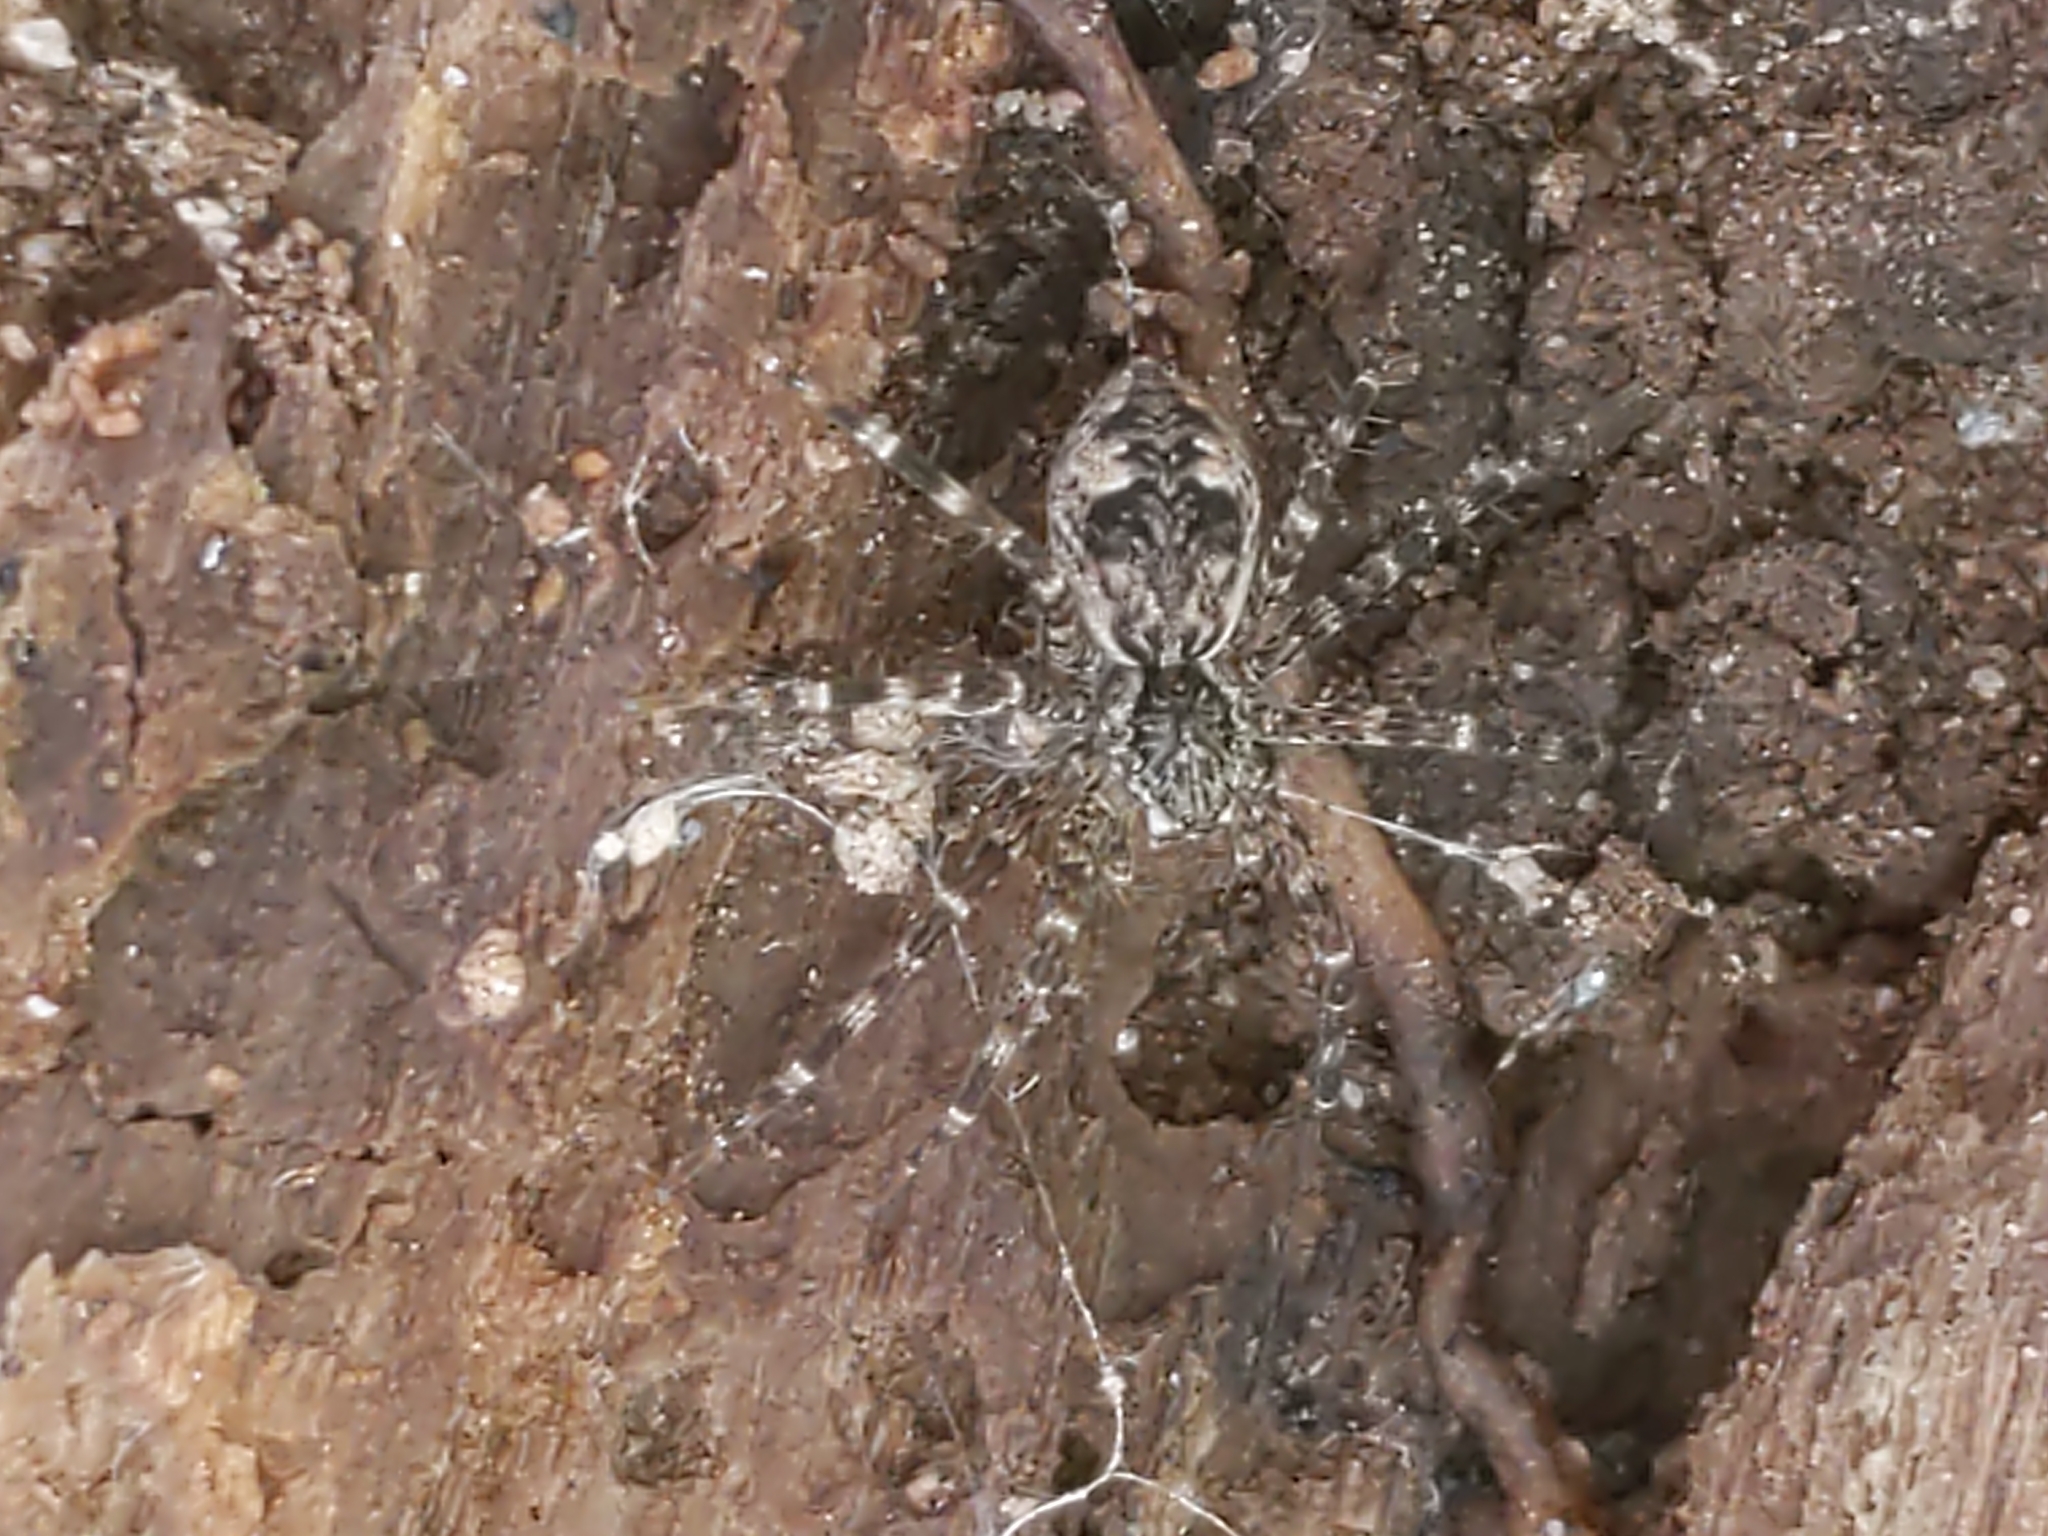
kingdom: Animalia
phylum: Arthropoda
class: Arachnida
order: Araneae
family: Pisauridae
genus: Dolomedes
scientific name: Dolomedes tenebrosus
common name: Dark fishing spider
